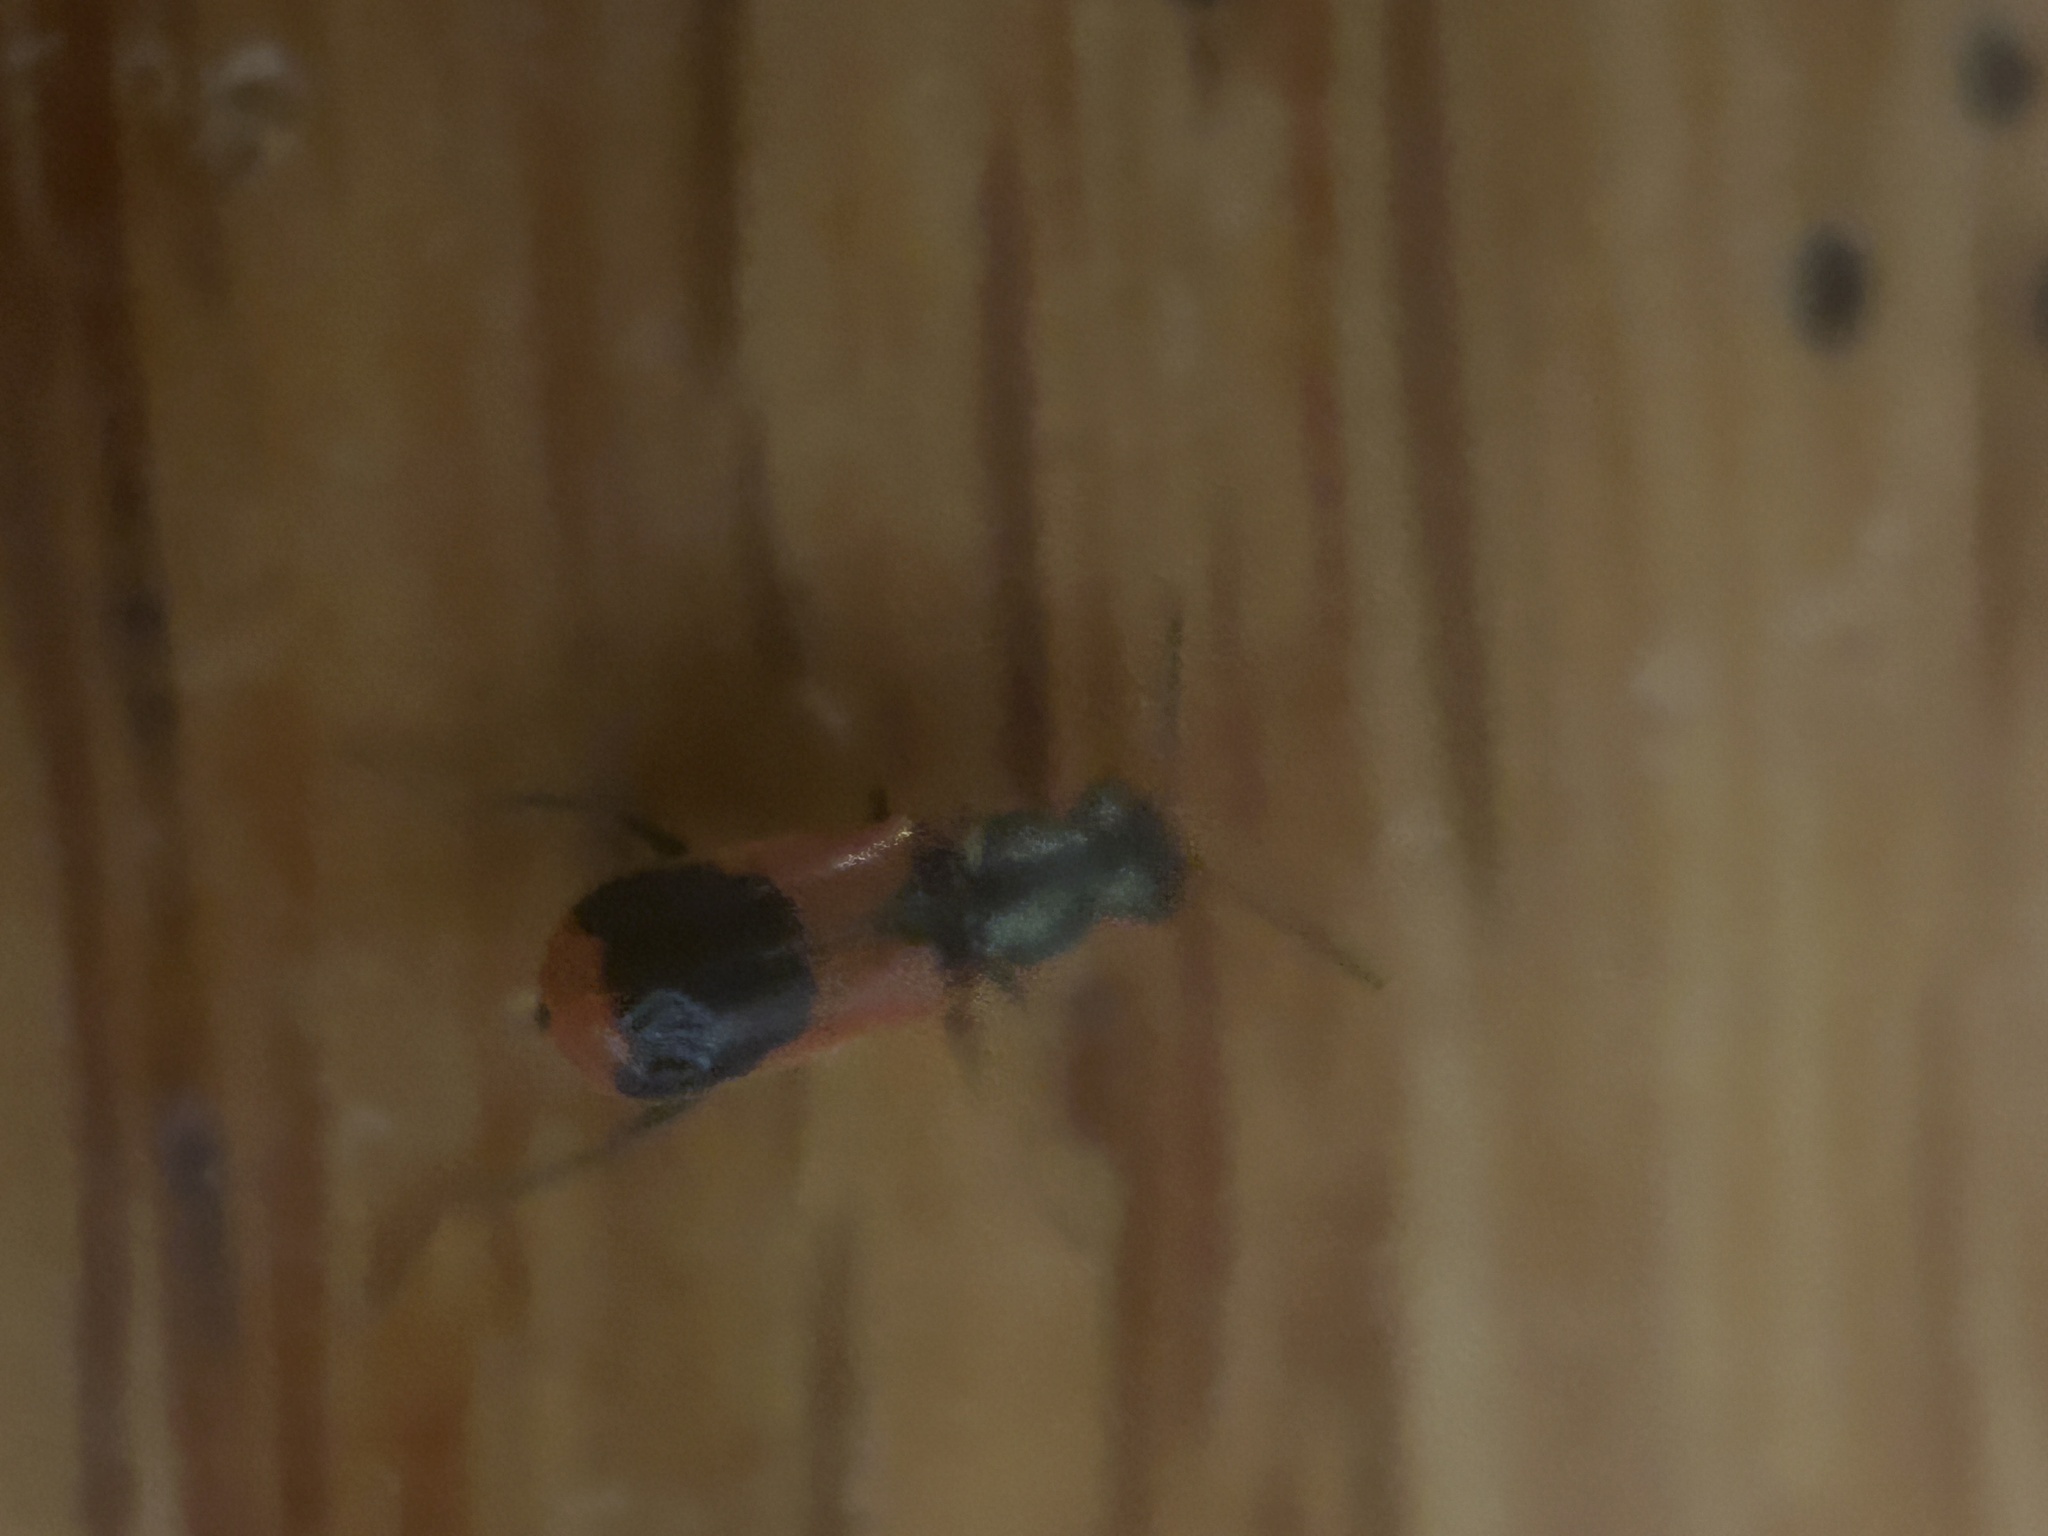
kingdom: Animalia
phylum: Arthropoda
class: Insecta
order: Coleoptera
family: Melyridae
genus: Anthocomus
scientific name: Anthocomus equestris
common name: Black-banded soft-winged flower beetle
